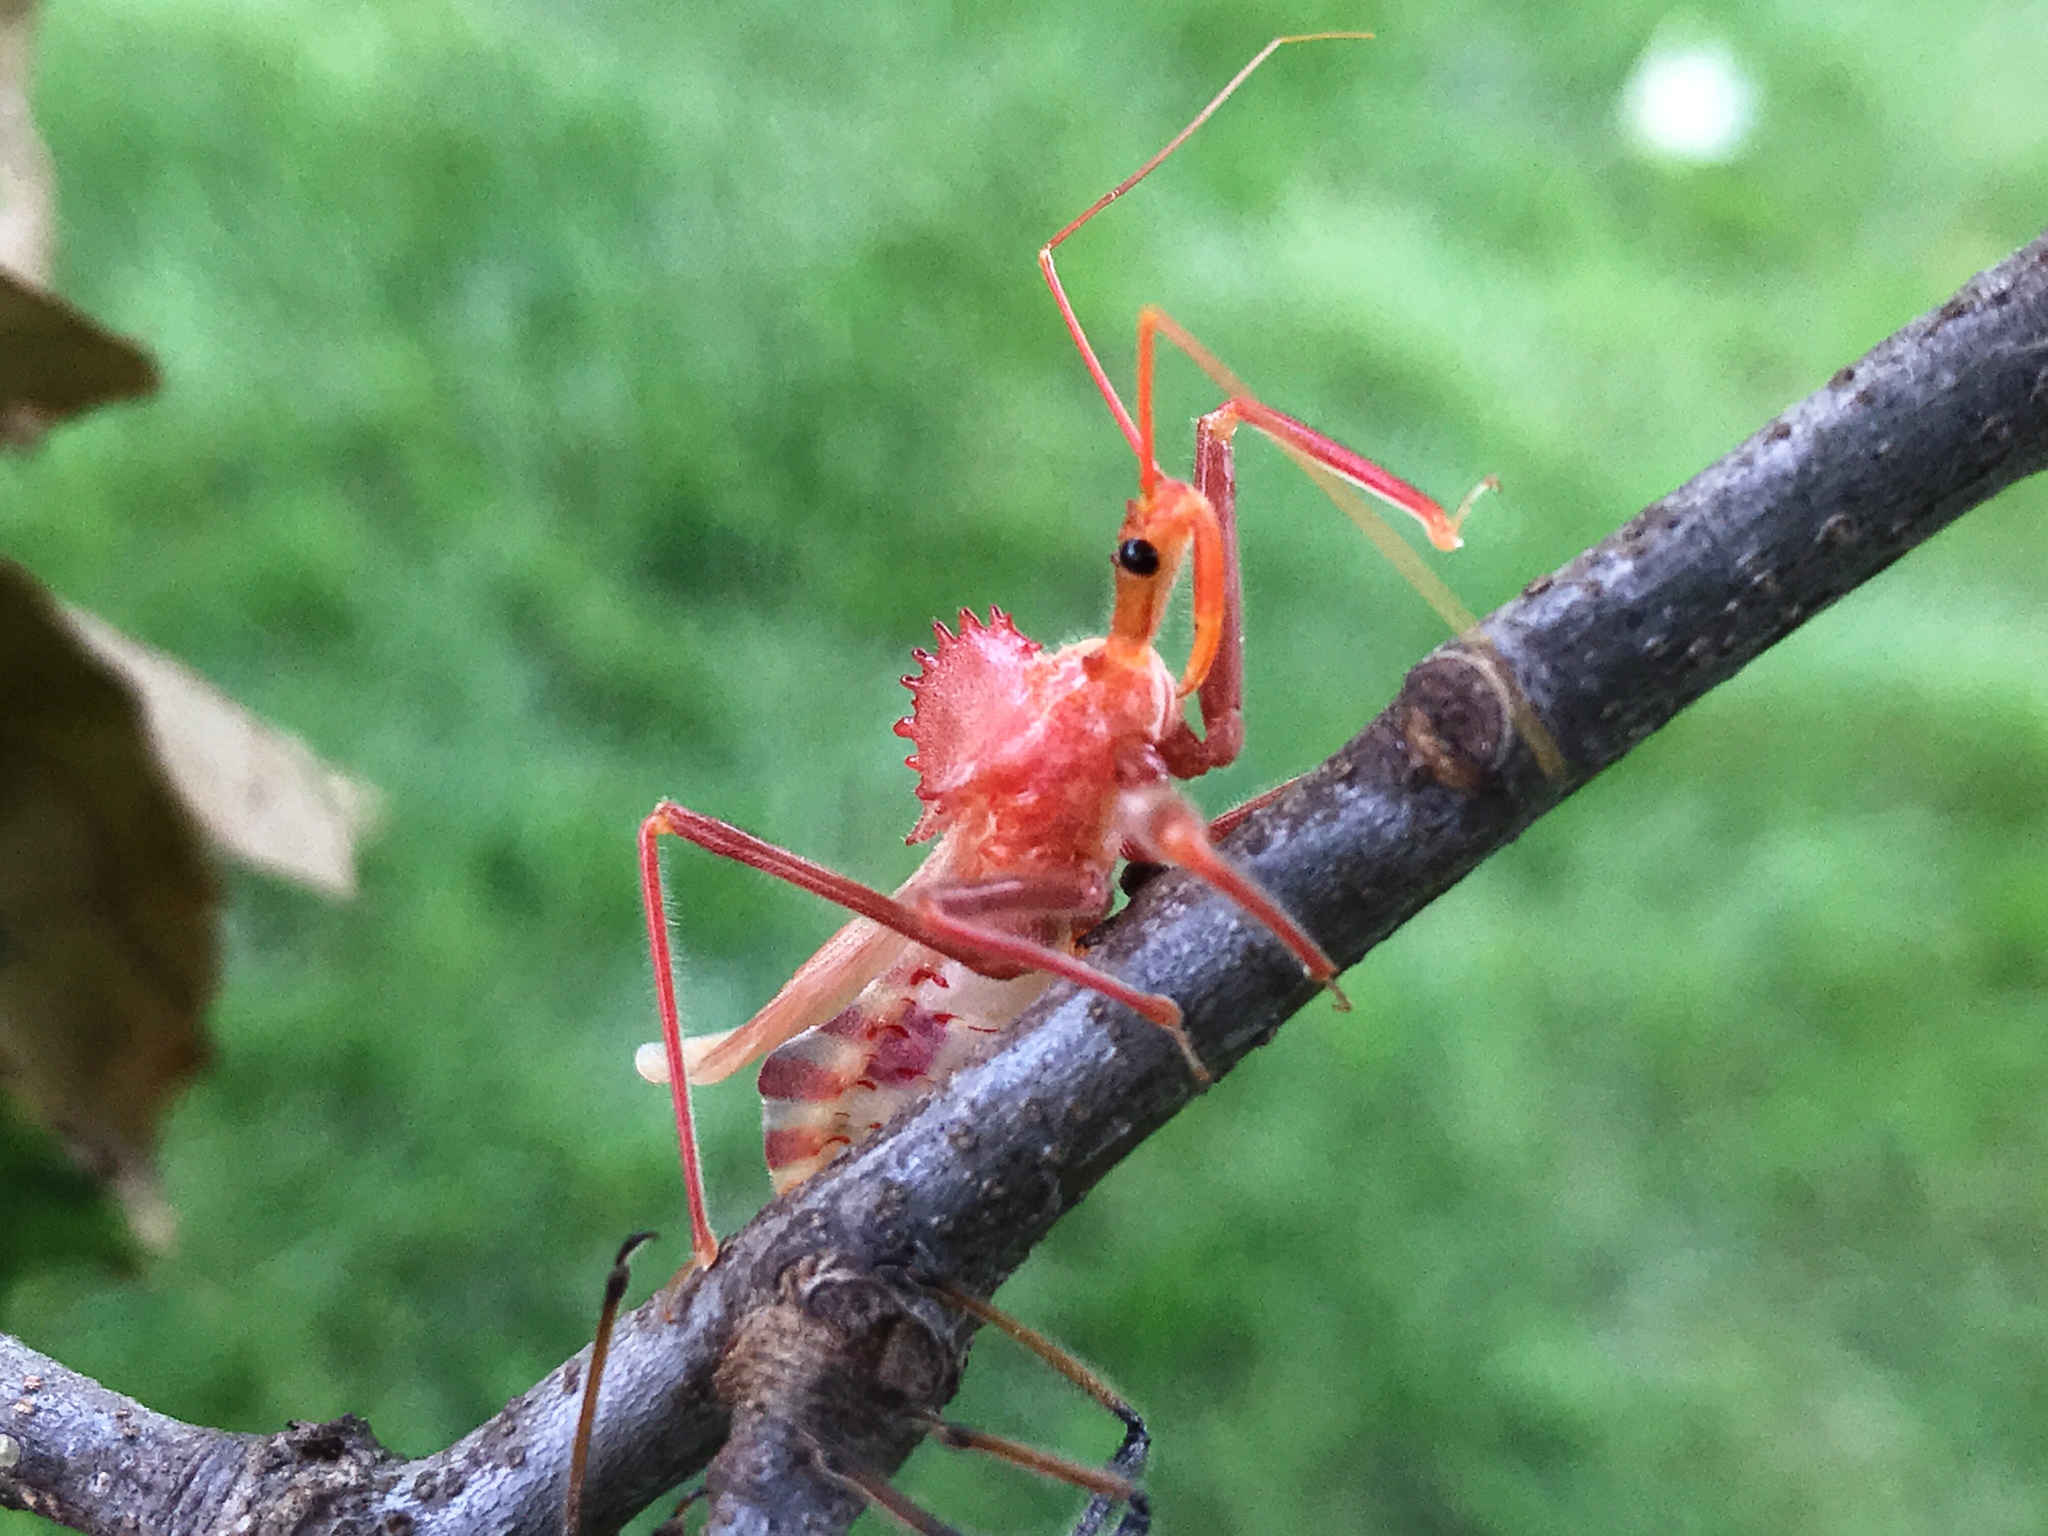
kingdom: Animalia
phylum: Arthropoda
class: Insecta
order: Hemiptera
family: Reduviidae
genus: Arilus
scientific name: Arilus cristatus
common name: North american wheel bug
